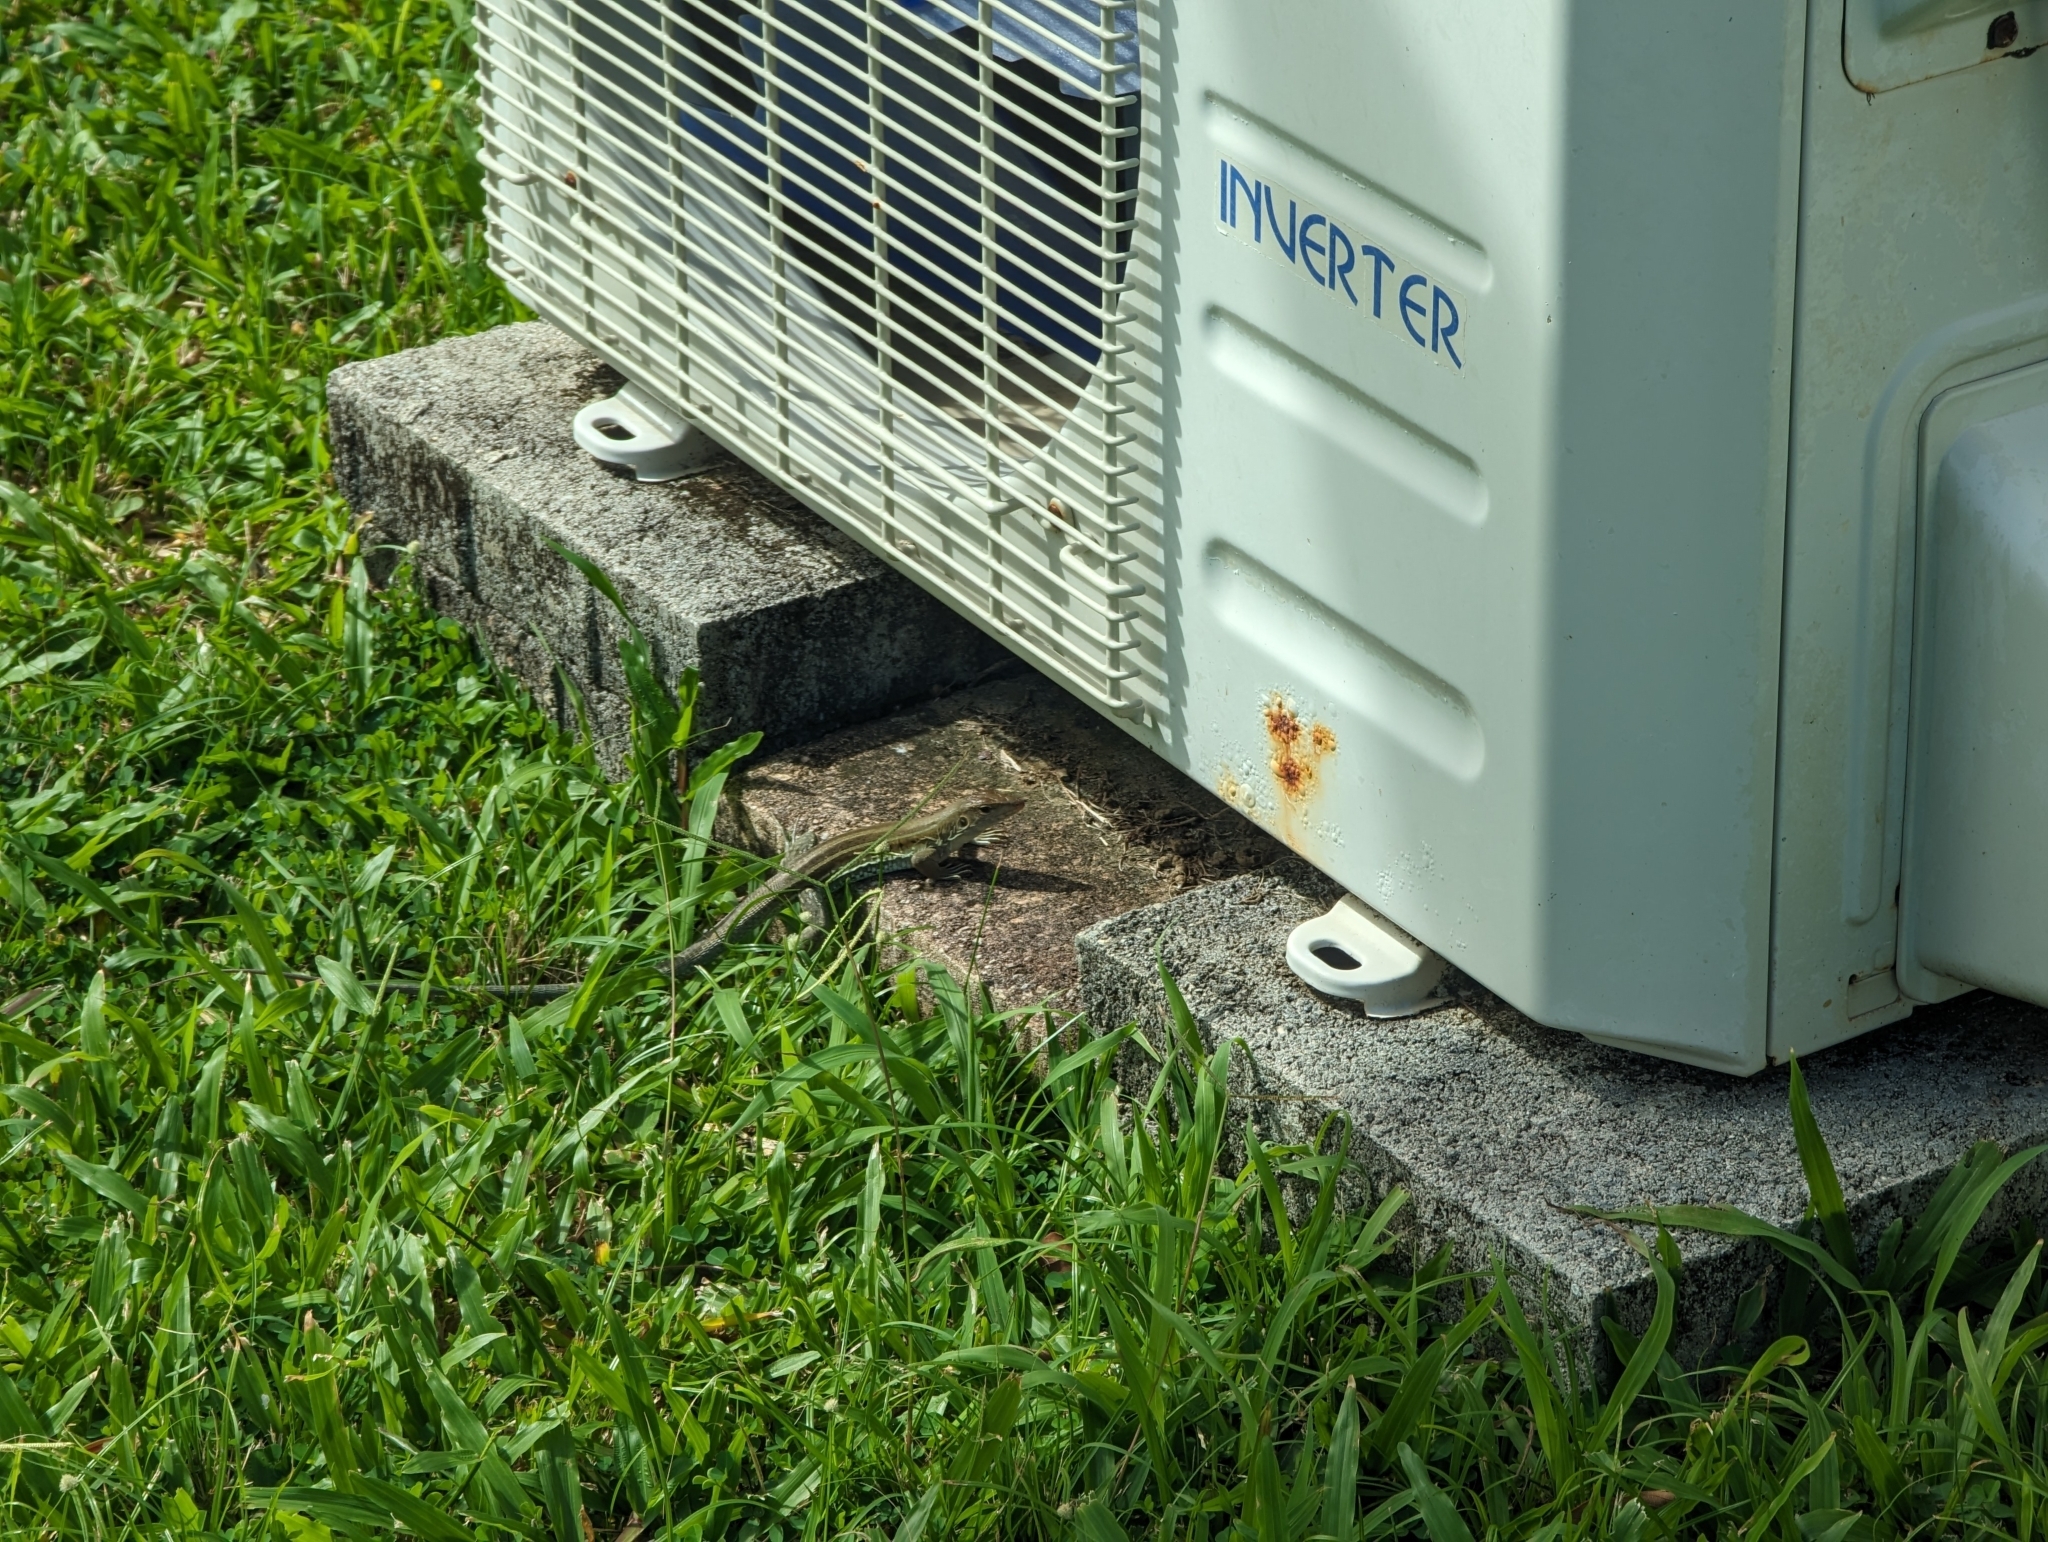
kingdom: Animalia
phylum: Chordata
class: Squamata
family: Teiidae
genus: Pholidoscelis
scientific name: Pholidoscelis exsul
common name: Common puerto rican ameiva
